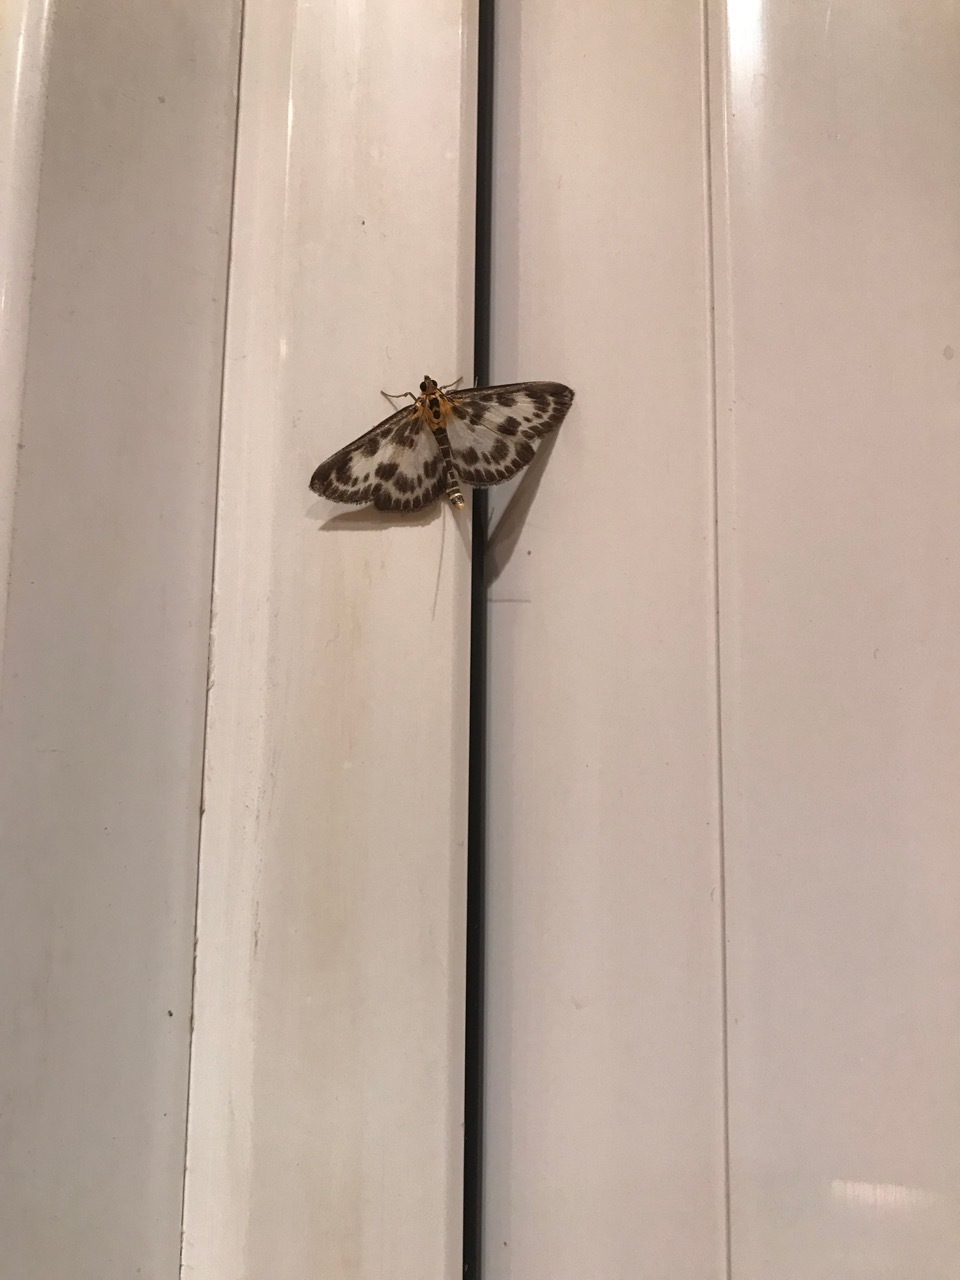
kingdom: Animalia
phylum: Arthropoda
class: Insecta
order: Lepidoptera
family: Crambidae
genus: Anania
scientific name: Anania hortulata
